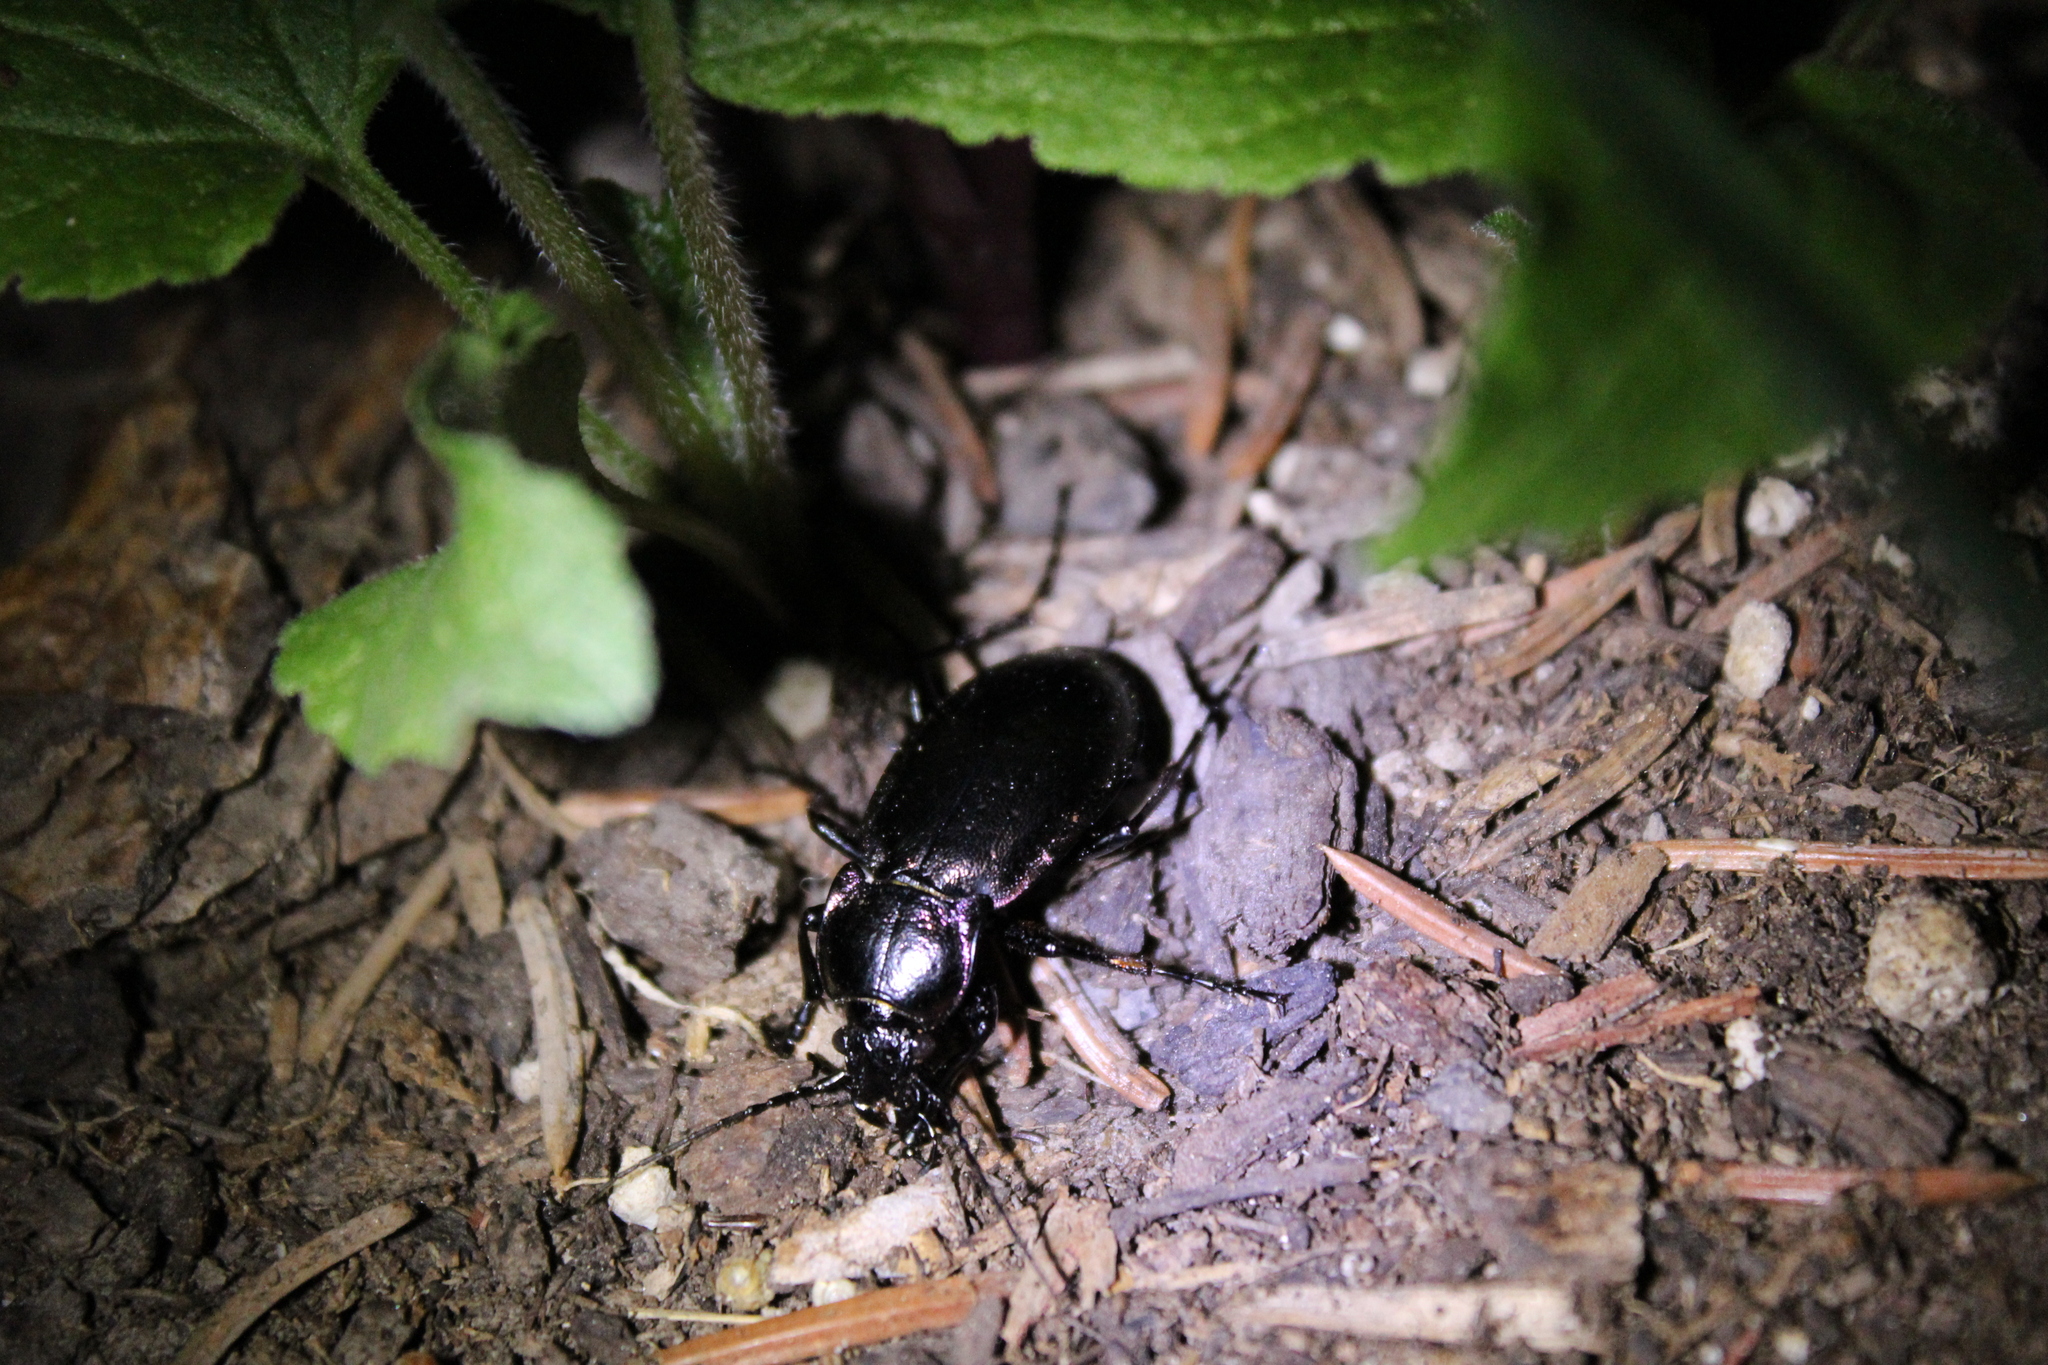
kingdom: Animalia
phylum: Arthropoda
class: Insecta
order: Coleoptera
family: Carabidae
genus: Carabus
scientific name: Carabus nemoralis
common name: European ground beetle
